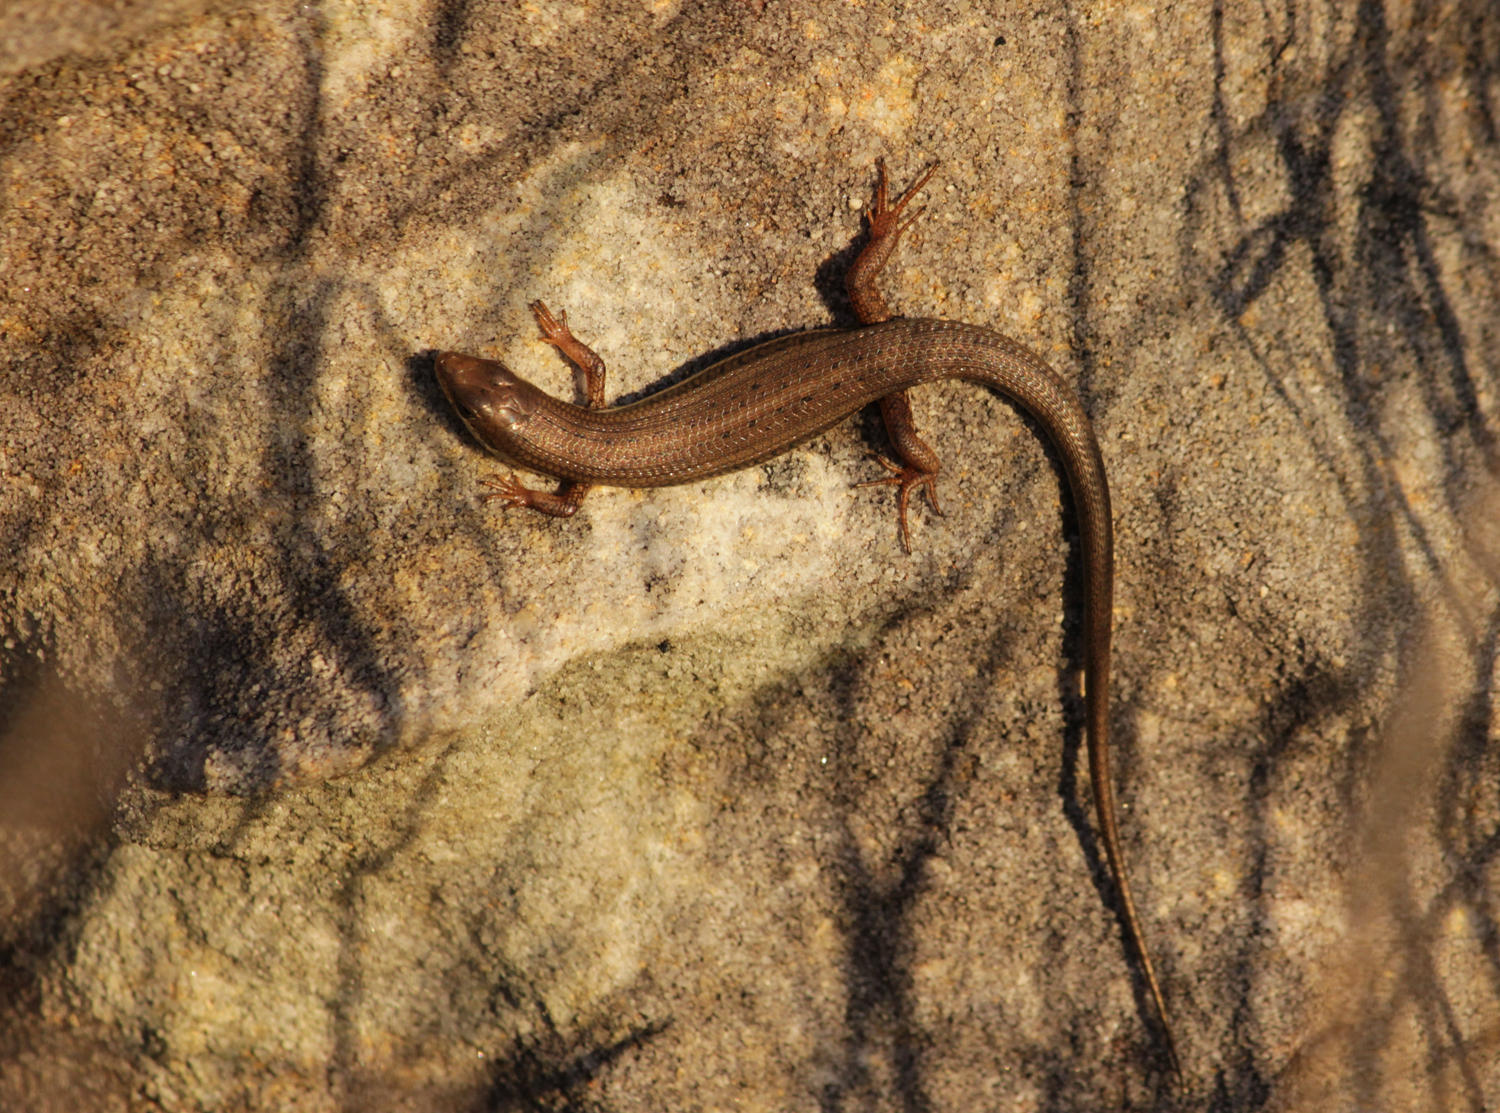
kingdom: Animalia
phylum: Chordata
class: Squamata
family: Scincidae
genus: Trachylepis
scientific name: Trachylepis homalocephala
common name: Red-sided skink
